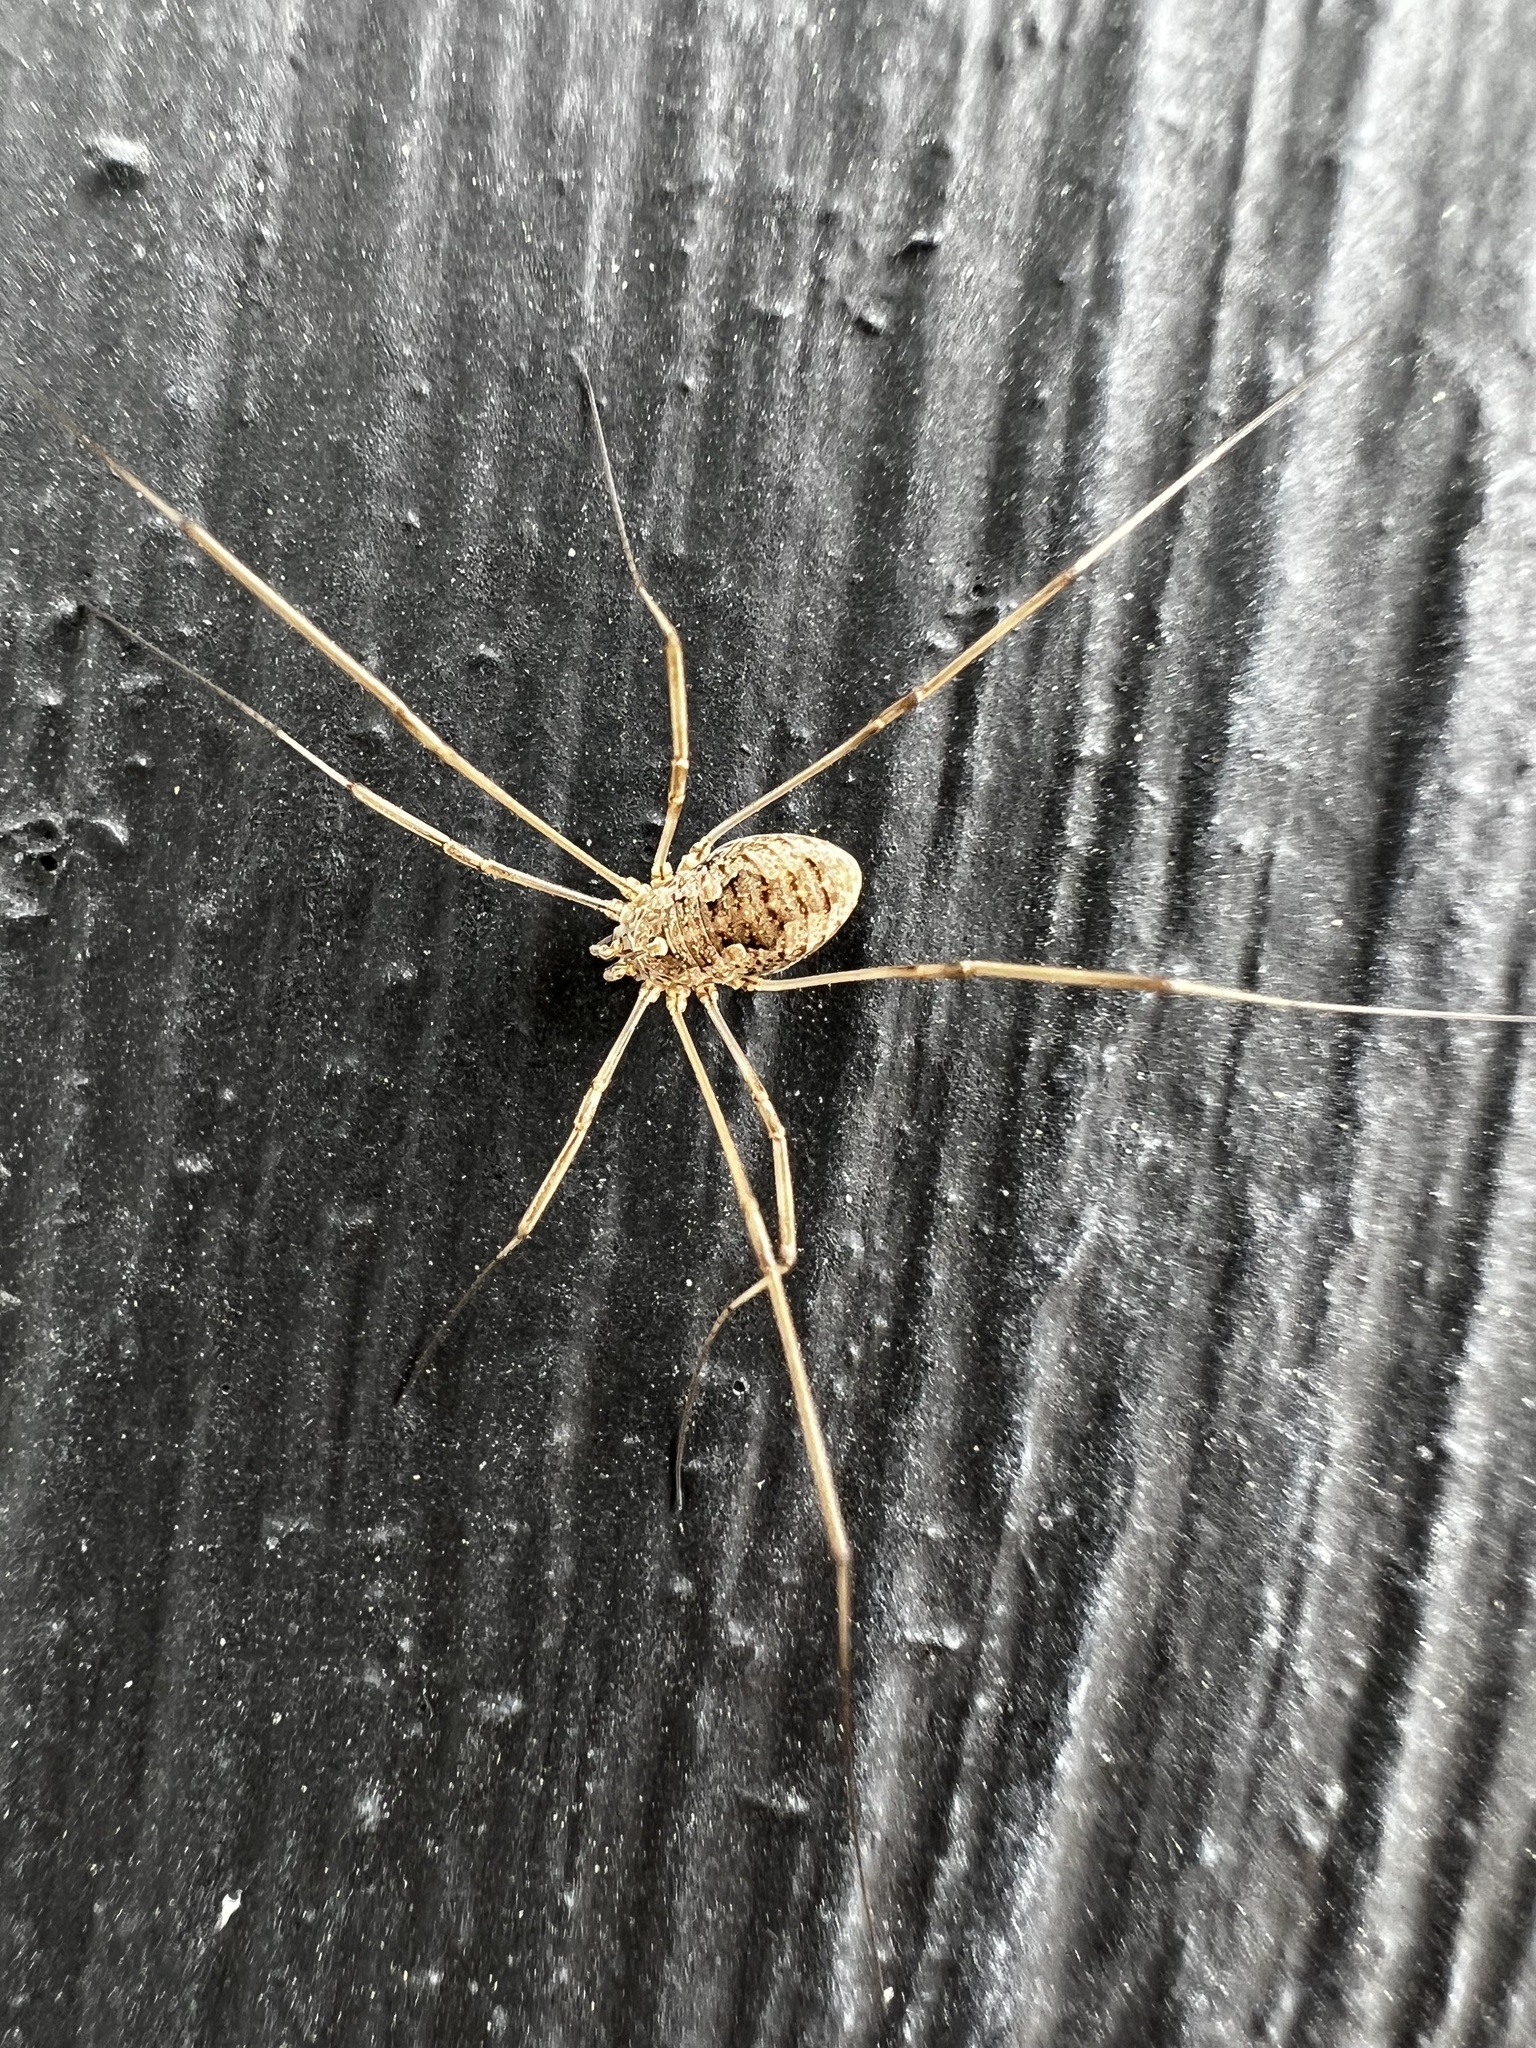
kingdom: Animalia
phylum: Arthropoda
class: Arachnida
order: Opiliones
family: Phalangiidae
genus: Phalangium
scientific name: Phalangium opilio
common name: Daddy longleg
